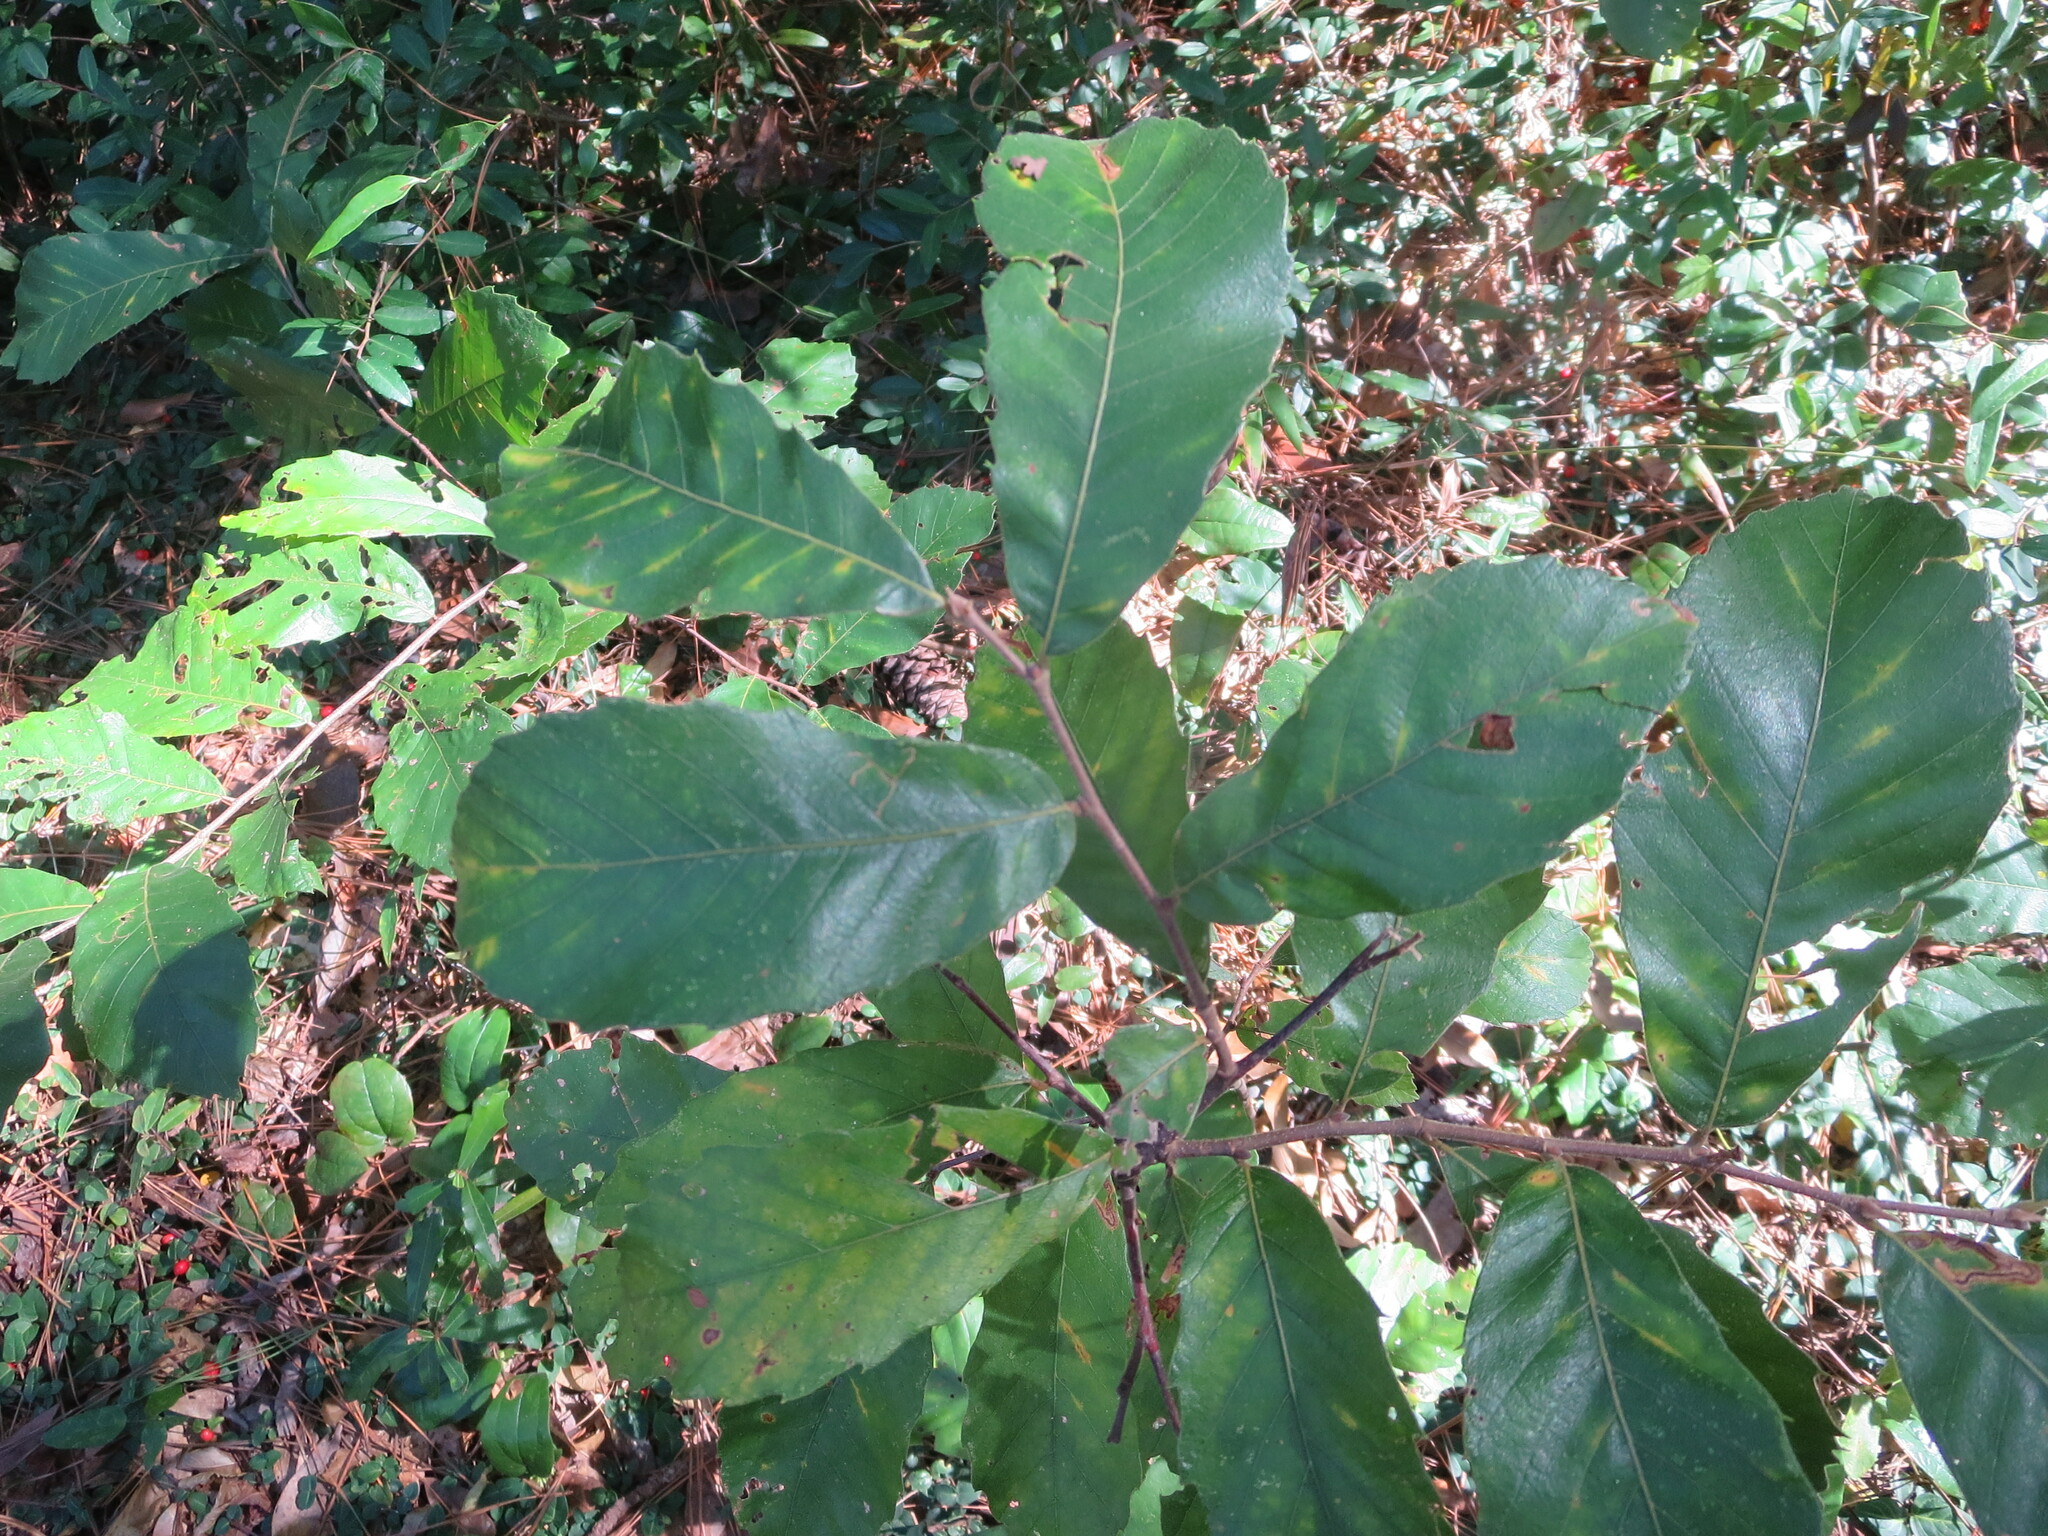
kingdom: Plantae
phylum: Tracheophyta
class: Magnoliopsida
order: Fagales
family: Fagaceae
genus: Castanea
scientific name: Castanea pumila
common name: Chinkapin
